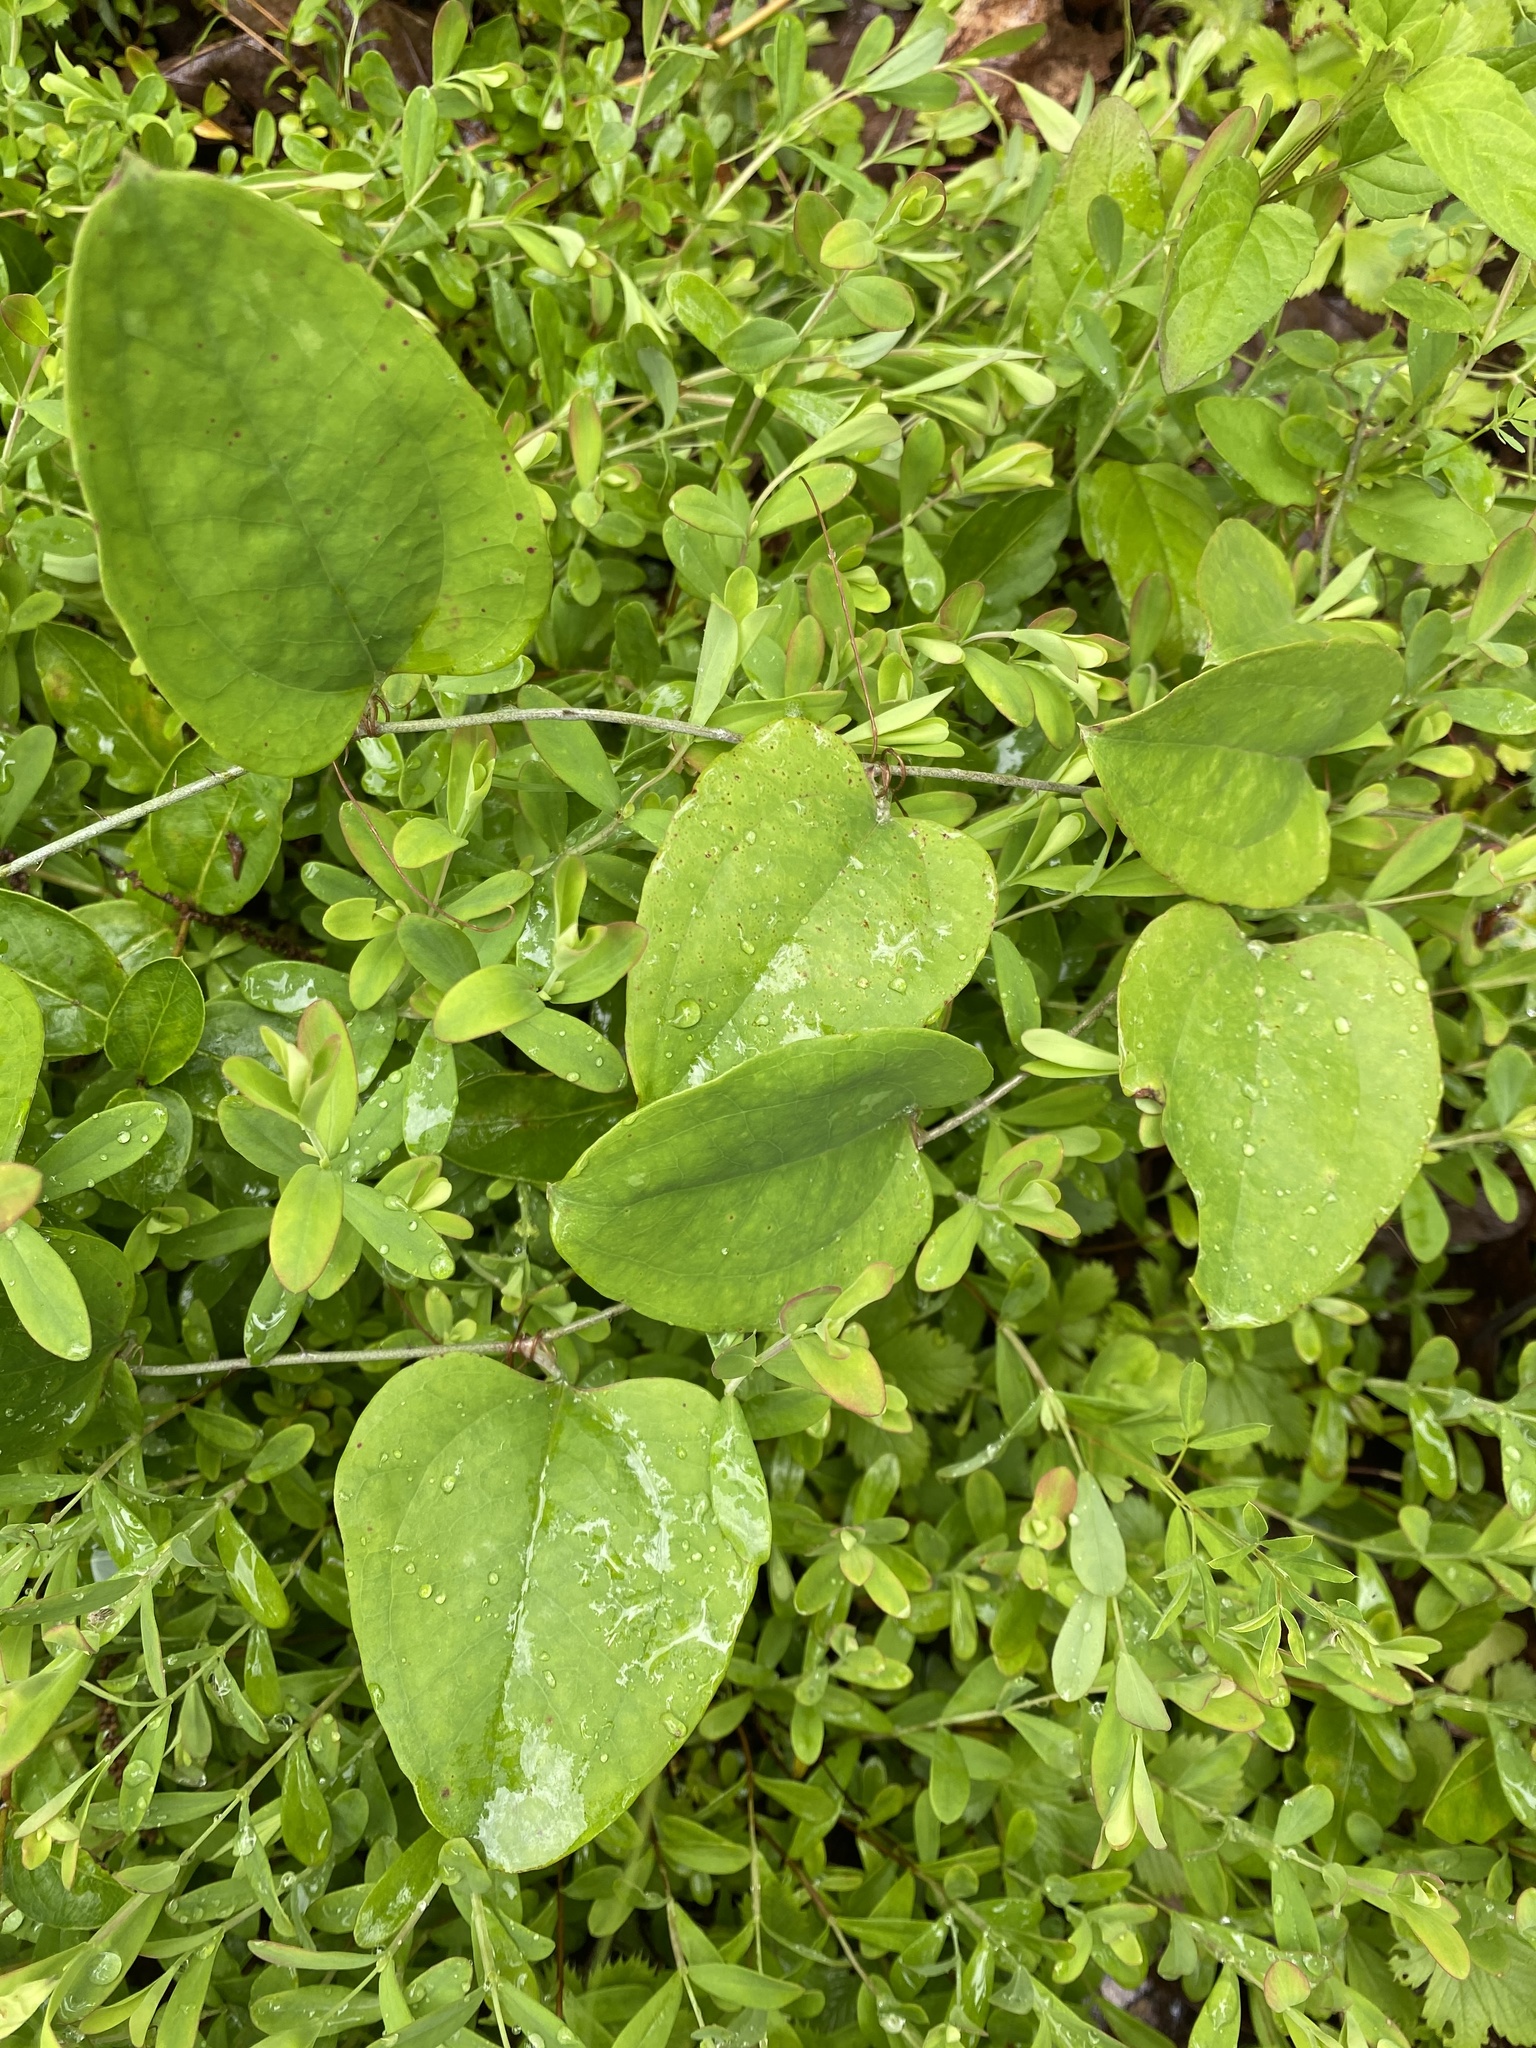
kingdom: Plantae
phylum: Tracheophyta
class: Liliopsida
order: Liliales
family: Smilacaceae
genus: Smilax
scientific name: Smilax glauca
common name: Cat greenbrier
